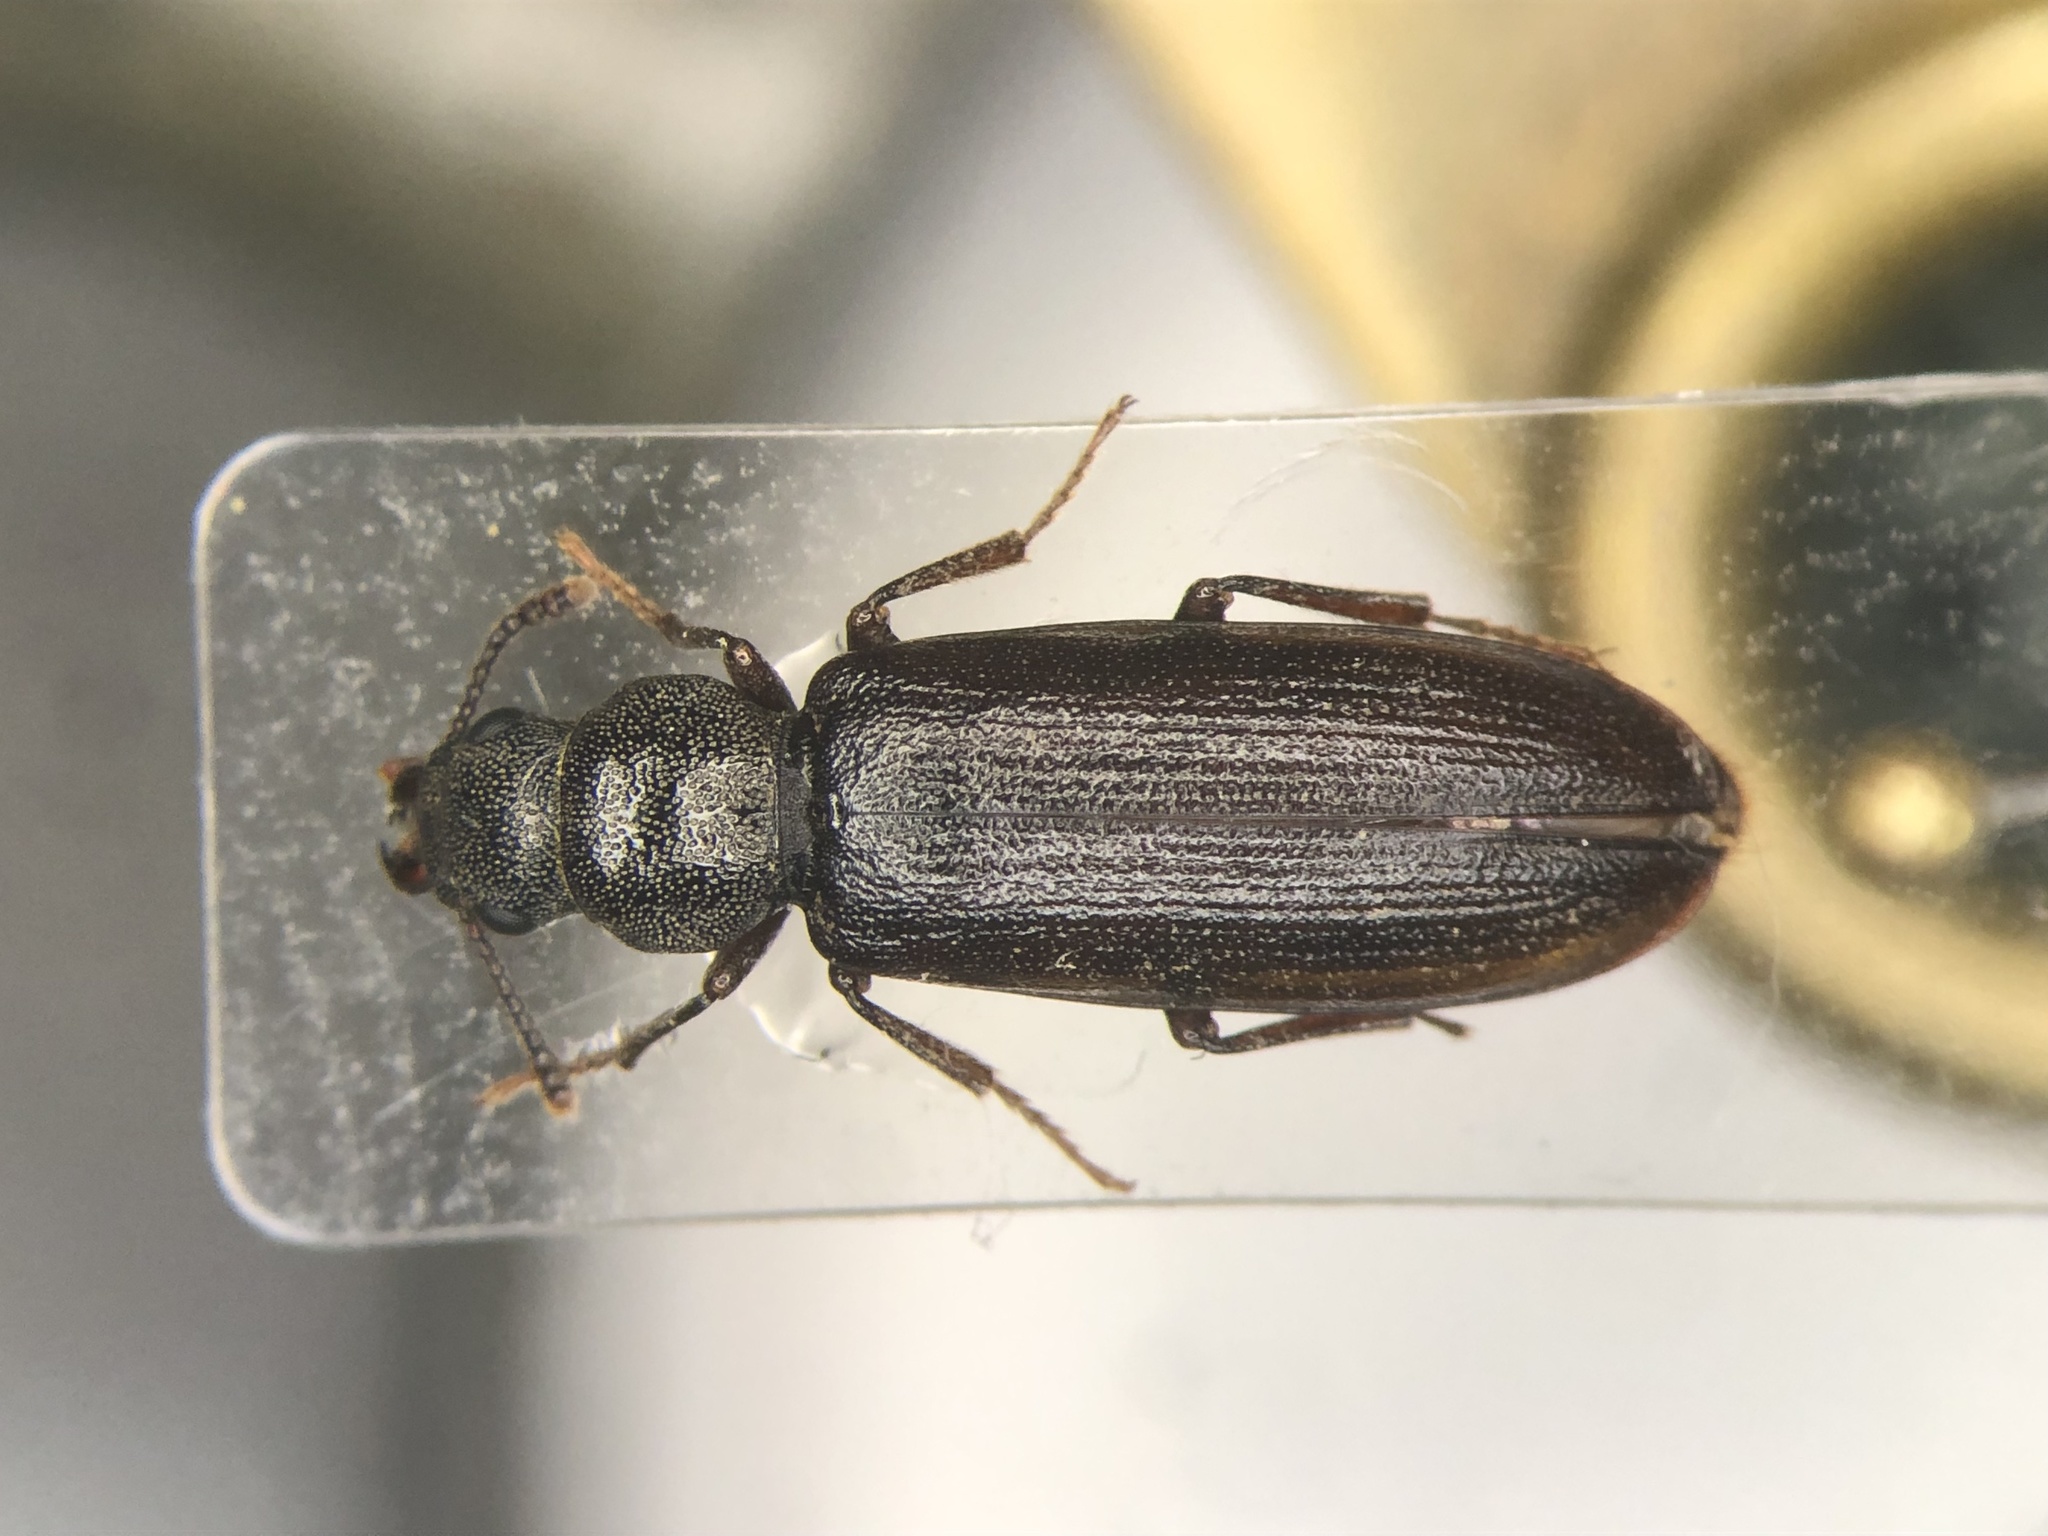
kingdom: Animalia
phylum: Arthropoda
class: Insecta
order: Coleoptera
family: Boridae
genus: Lecontia
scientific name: Lecontia discicollis
